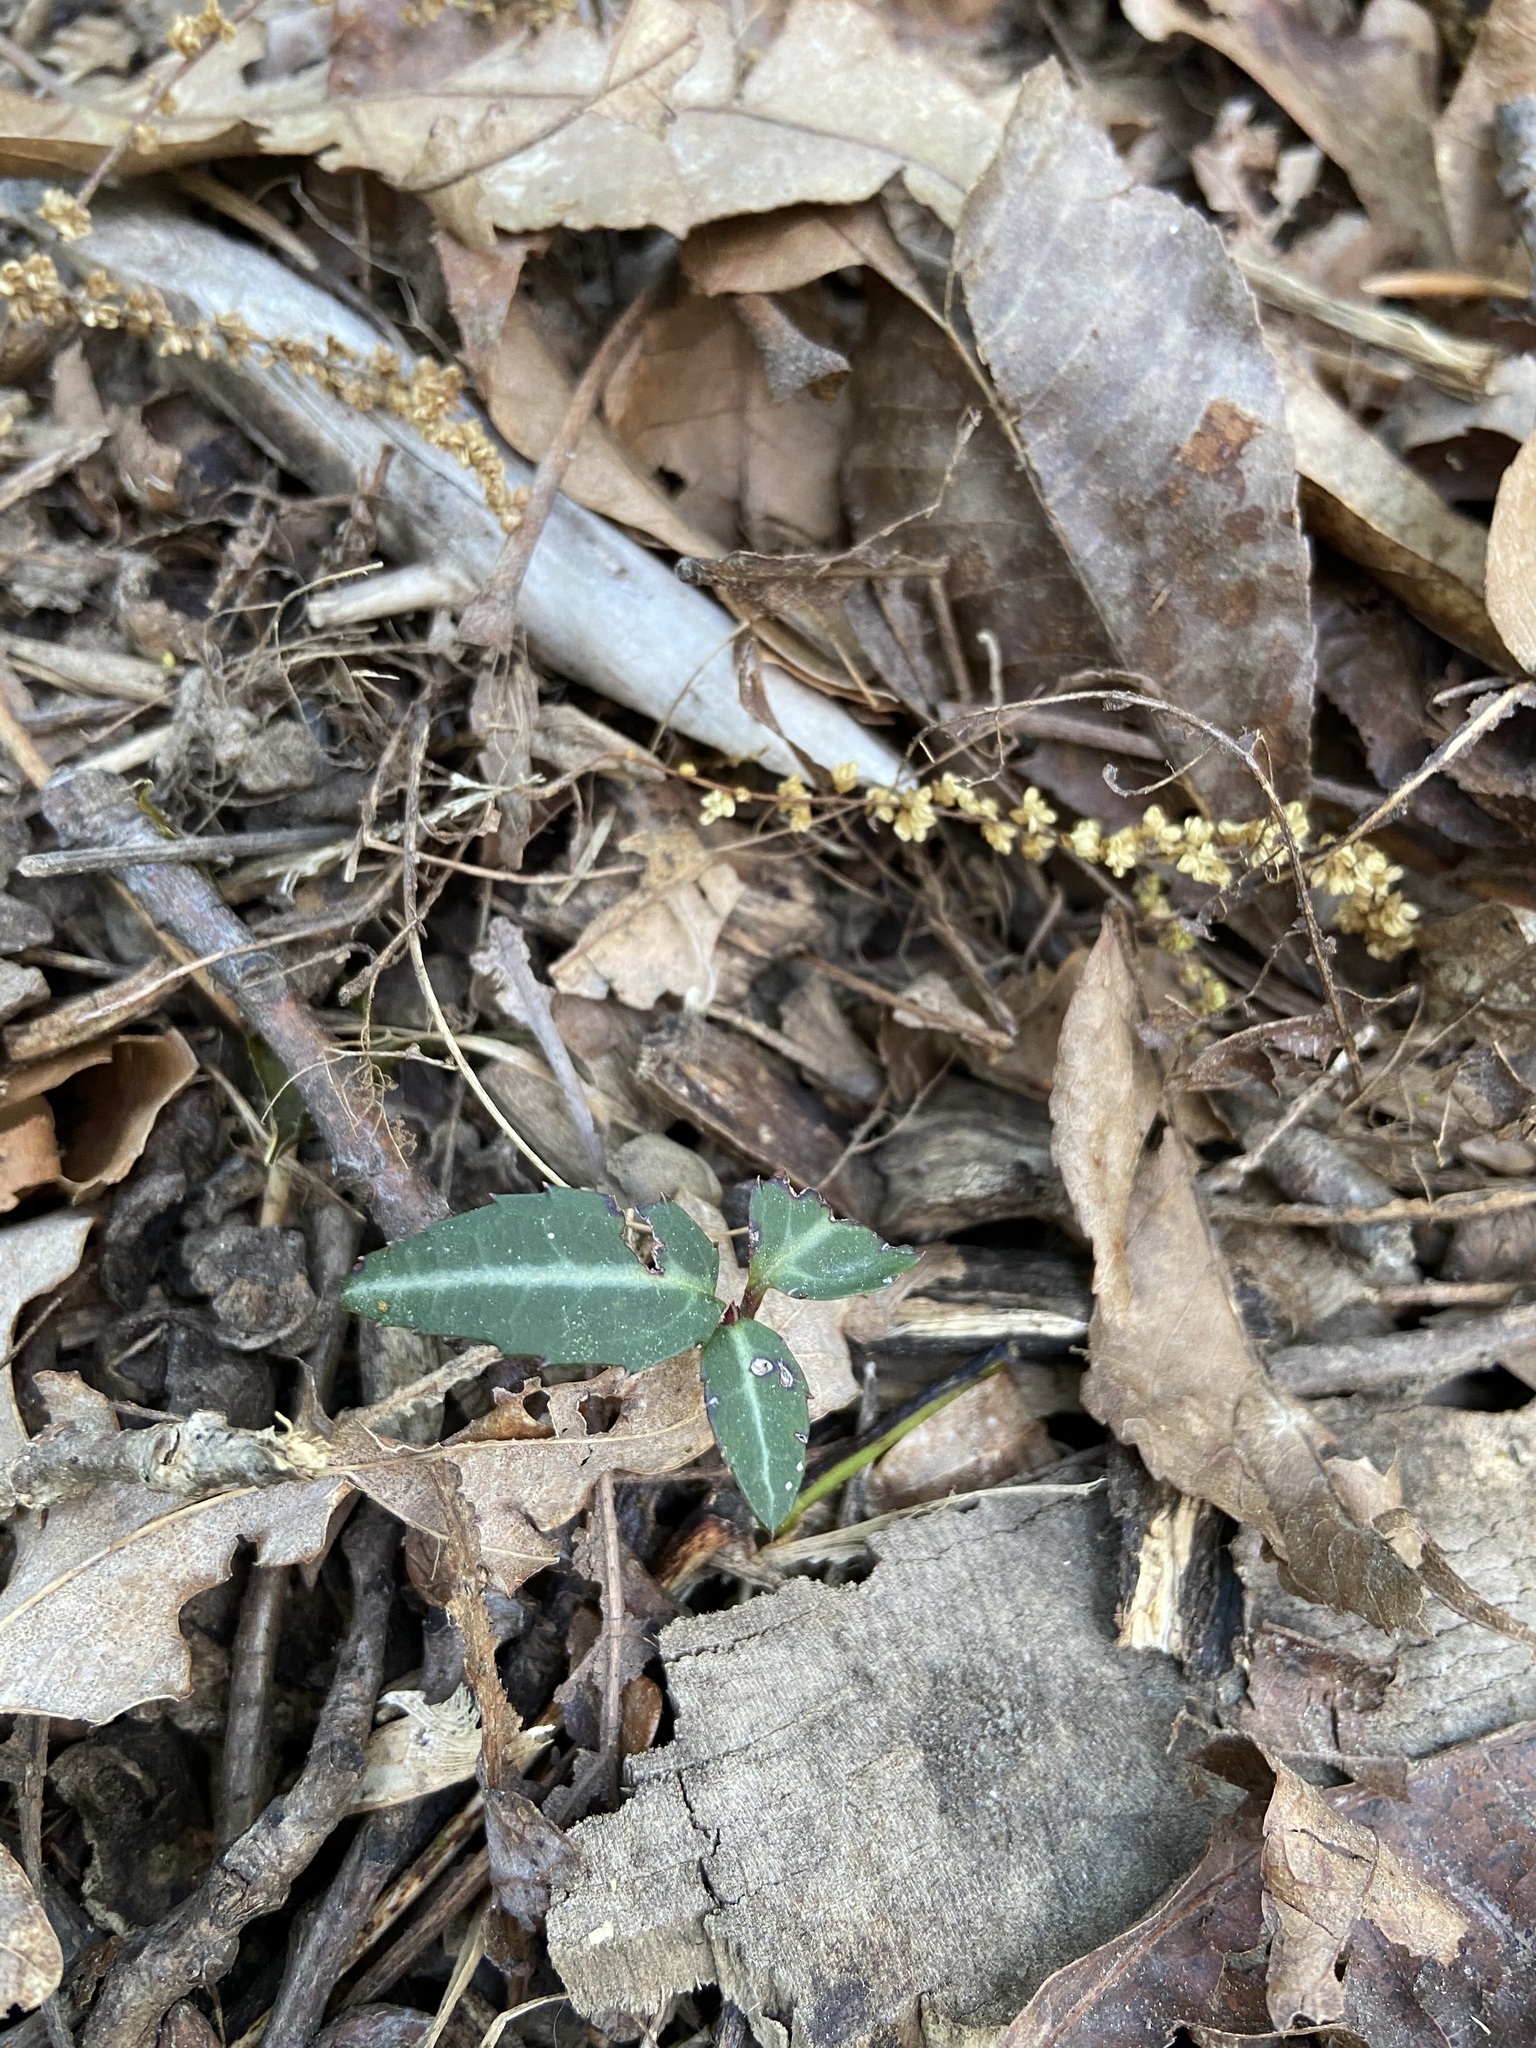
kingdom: Plantae
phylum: Tracheophyta
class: Magnoliopsida
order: Ericales
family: Ericaceae
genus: Chimaphila
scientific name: Chimaphila maculata
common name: Spotted pipsissewa
